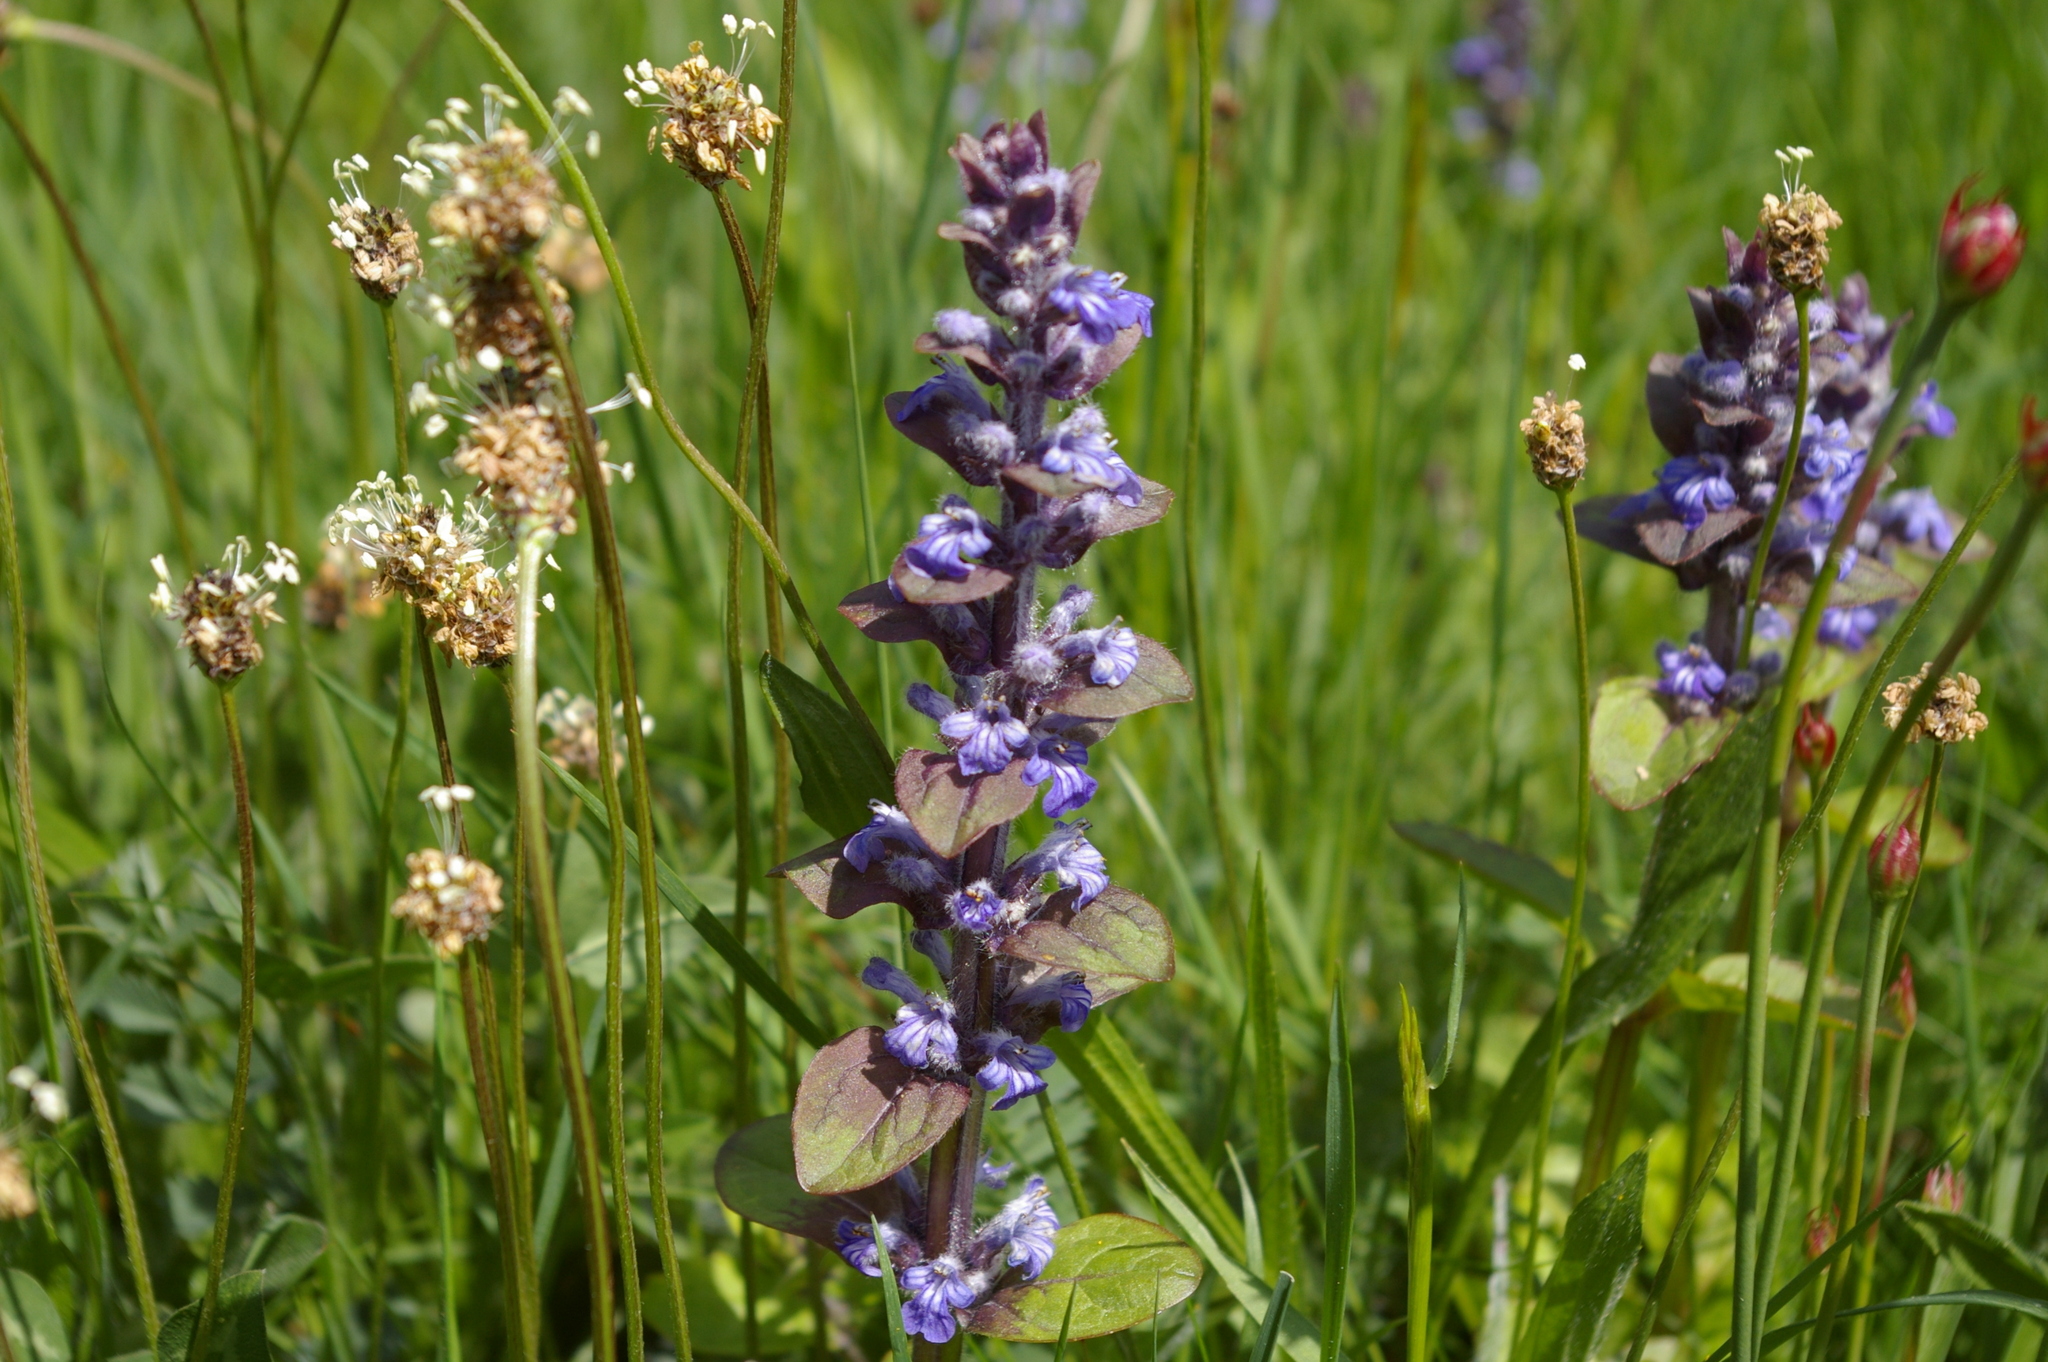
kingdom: Plantae
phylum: Tracheophyta
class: Magnoliopsida
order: Lamiales
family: Lamiaceae
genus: Ajuga
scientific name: Ajuga reptans
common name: Bugle
